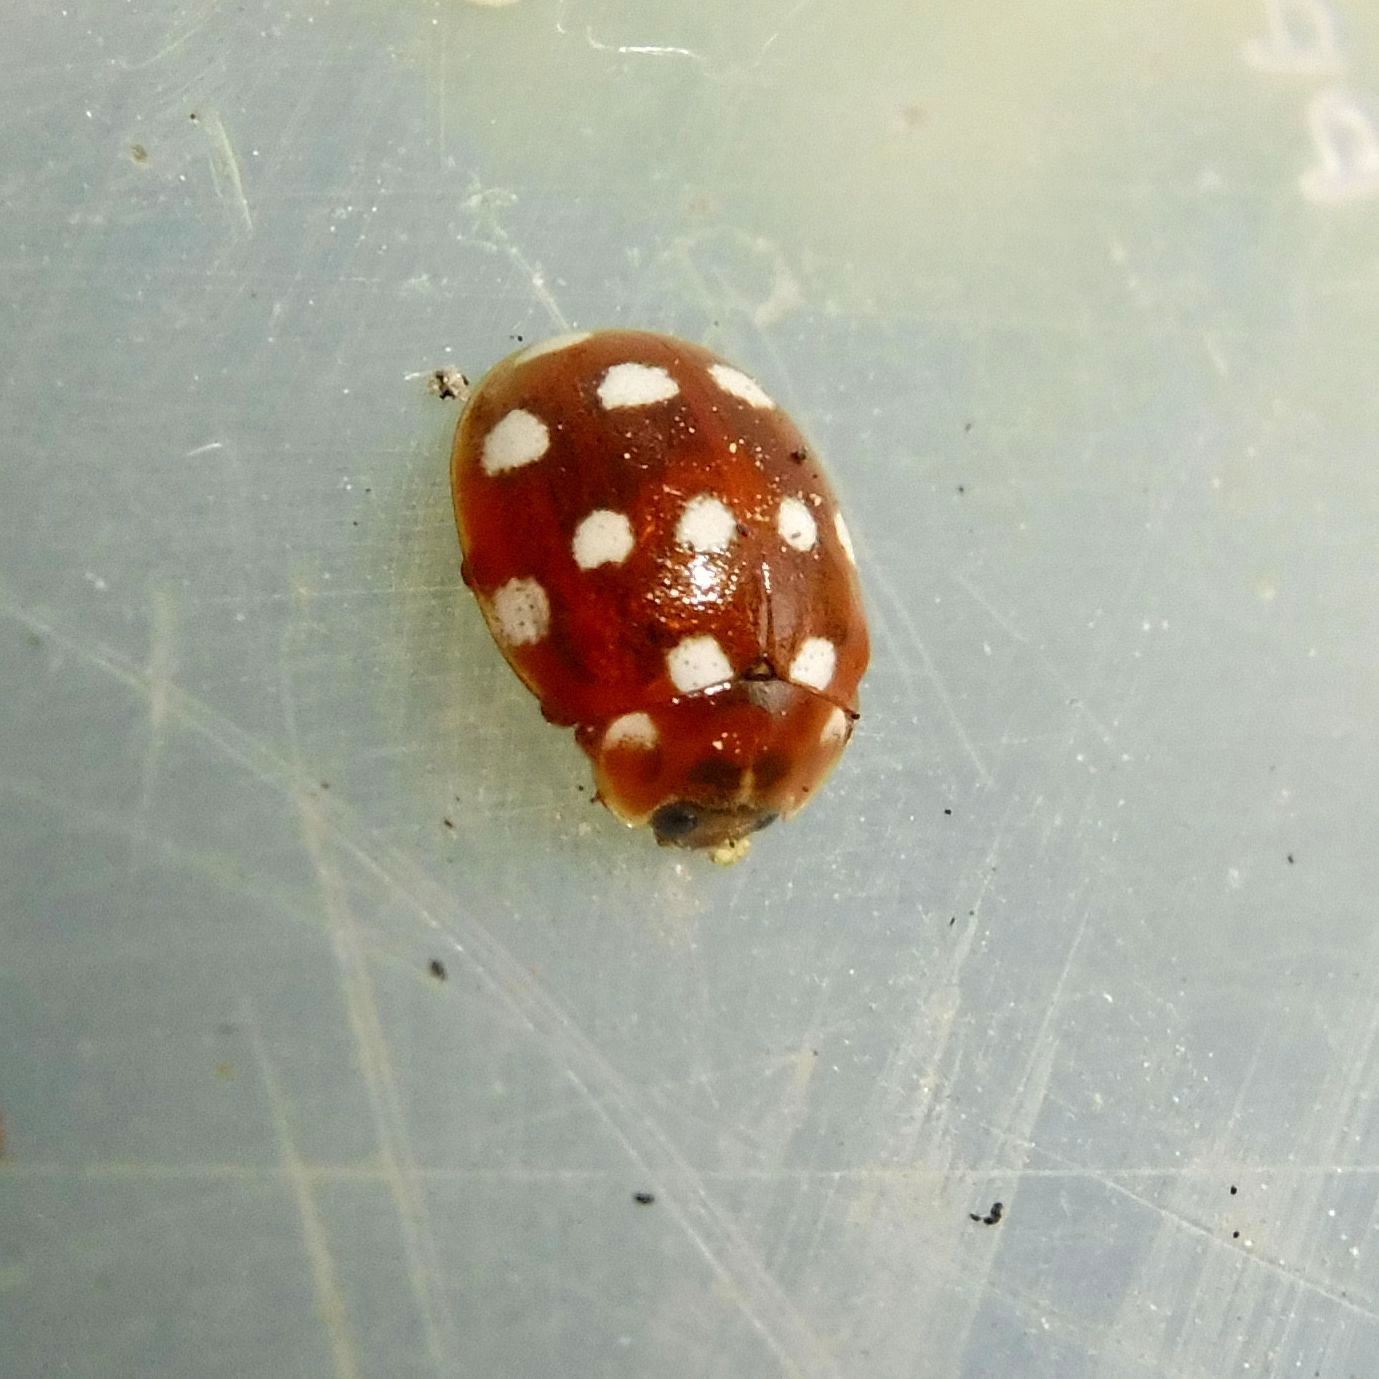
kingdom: Animalia
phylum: Arthropoda
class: Insecta
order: Coleoptera
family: Coccinellidae
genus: Calvia
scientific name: Calvia quatuordecimguttata
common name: Cream-spot ladybird
